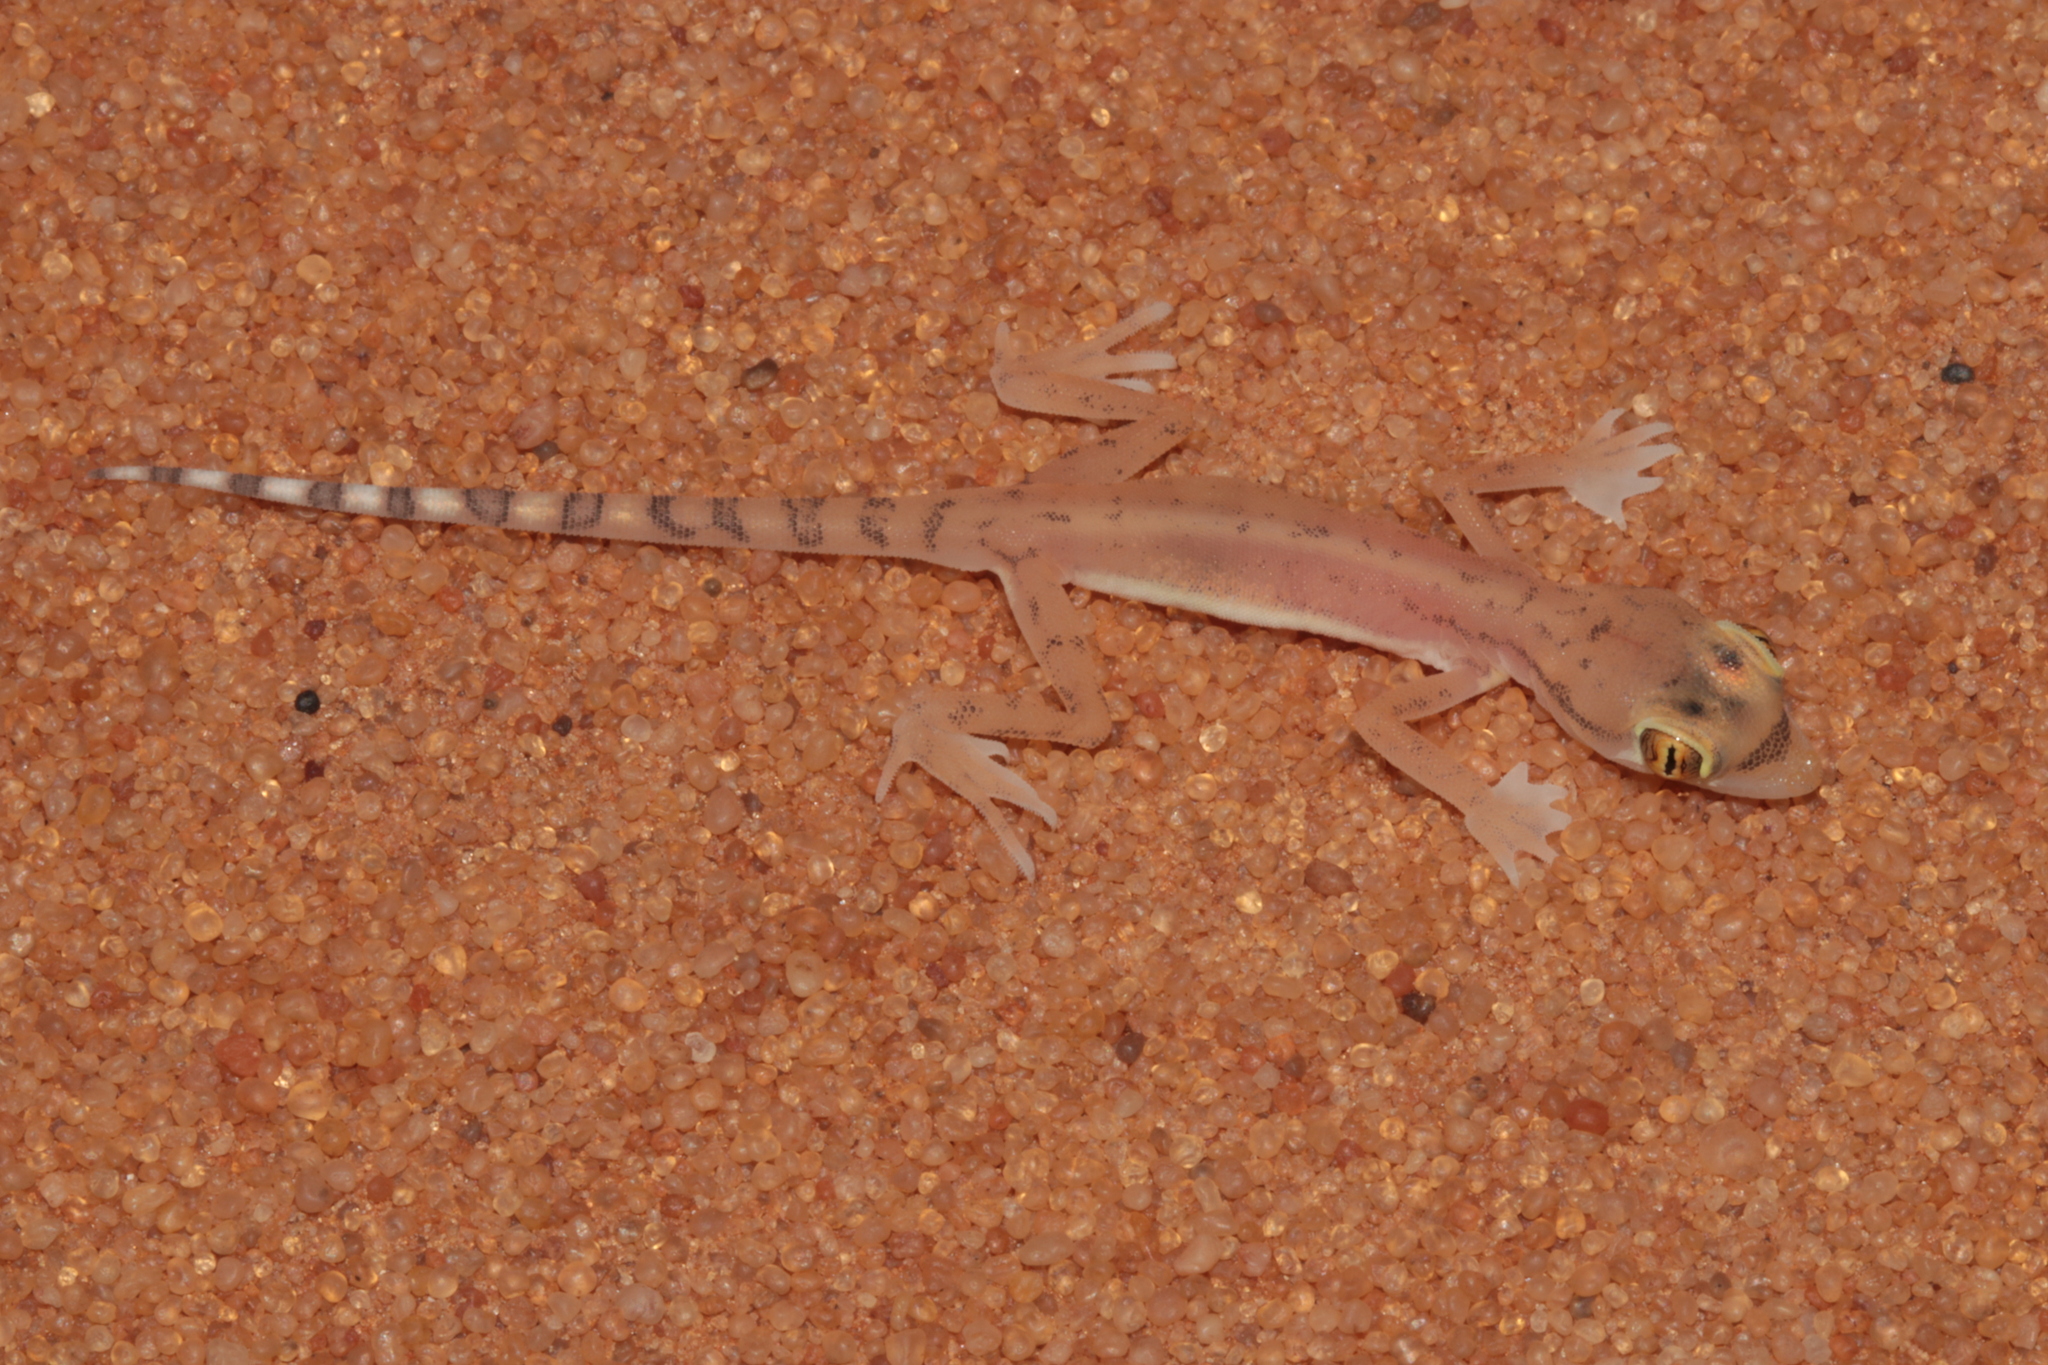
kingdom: Animalia
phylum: Chordata
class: Squamata
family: Gekkonidae
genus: Trigonodactylus
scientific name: Trigonodactylus arabicus
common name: Arabian sand gecko
